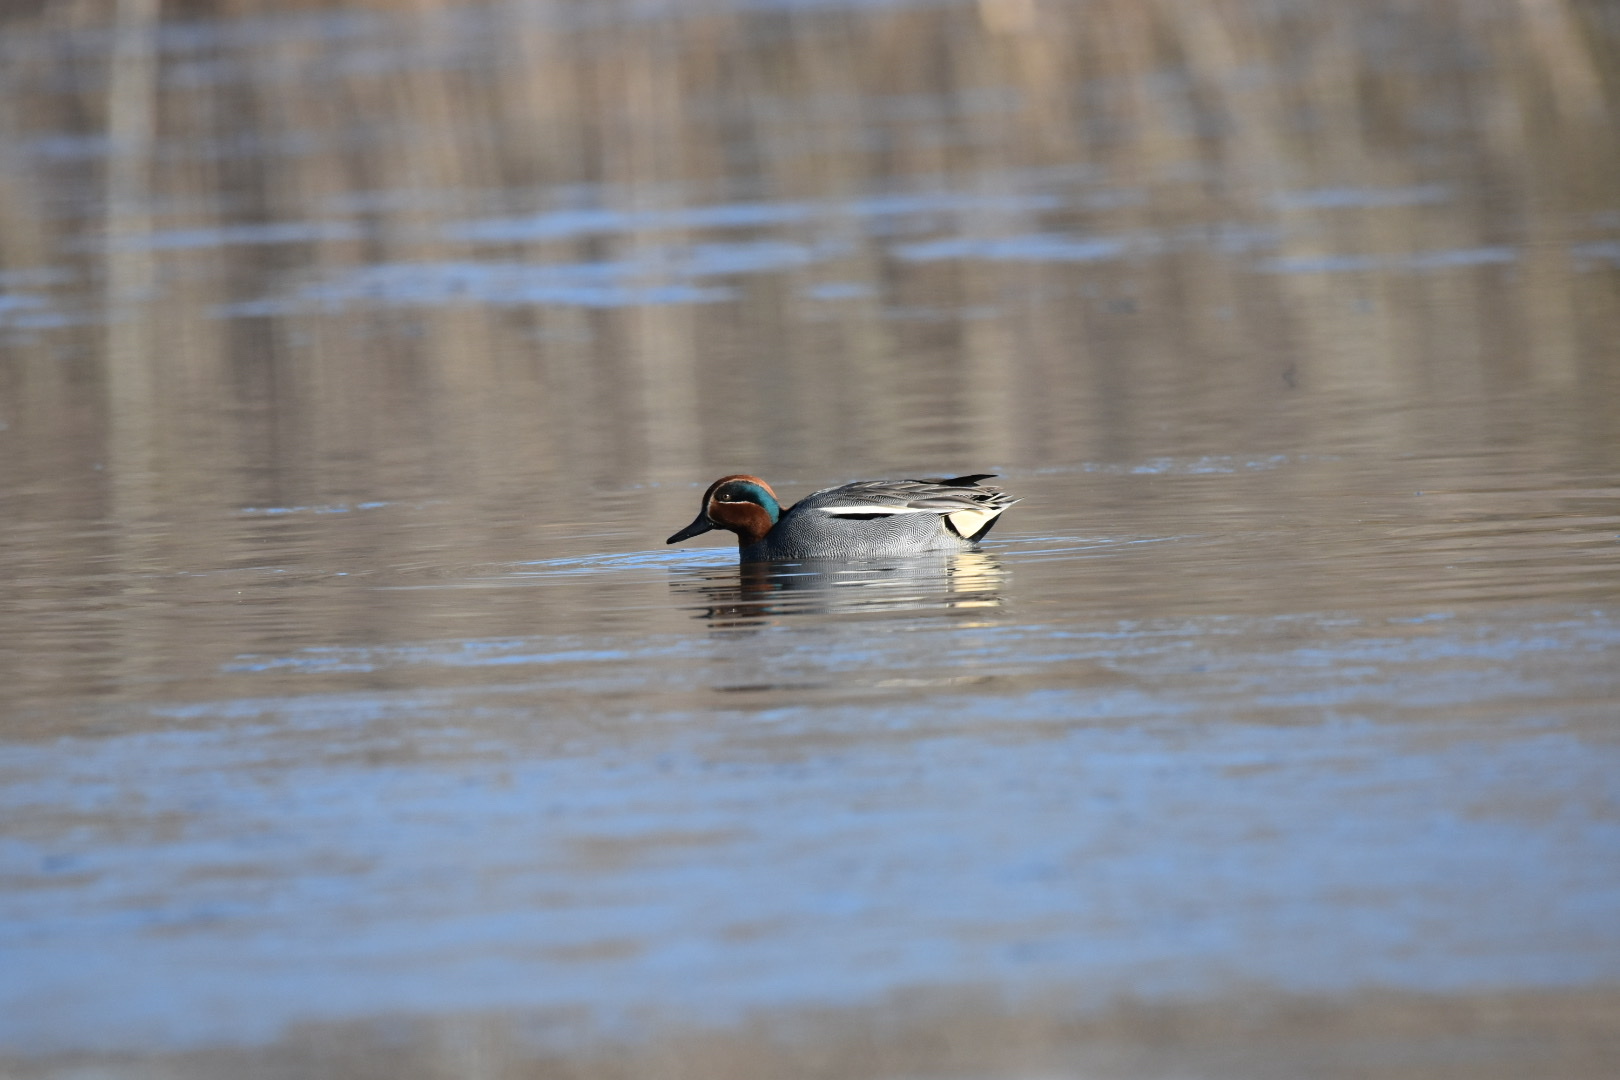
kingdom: Animalia
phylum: Chordata
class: Aves
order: Anseriformes
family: Anatidae
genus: Anas
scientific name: Anas crecca
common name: Eurasian teal
